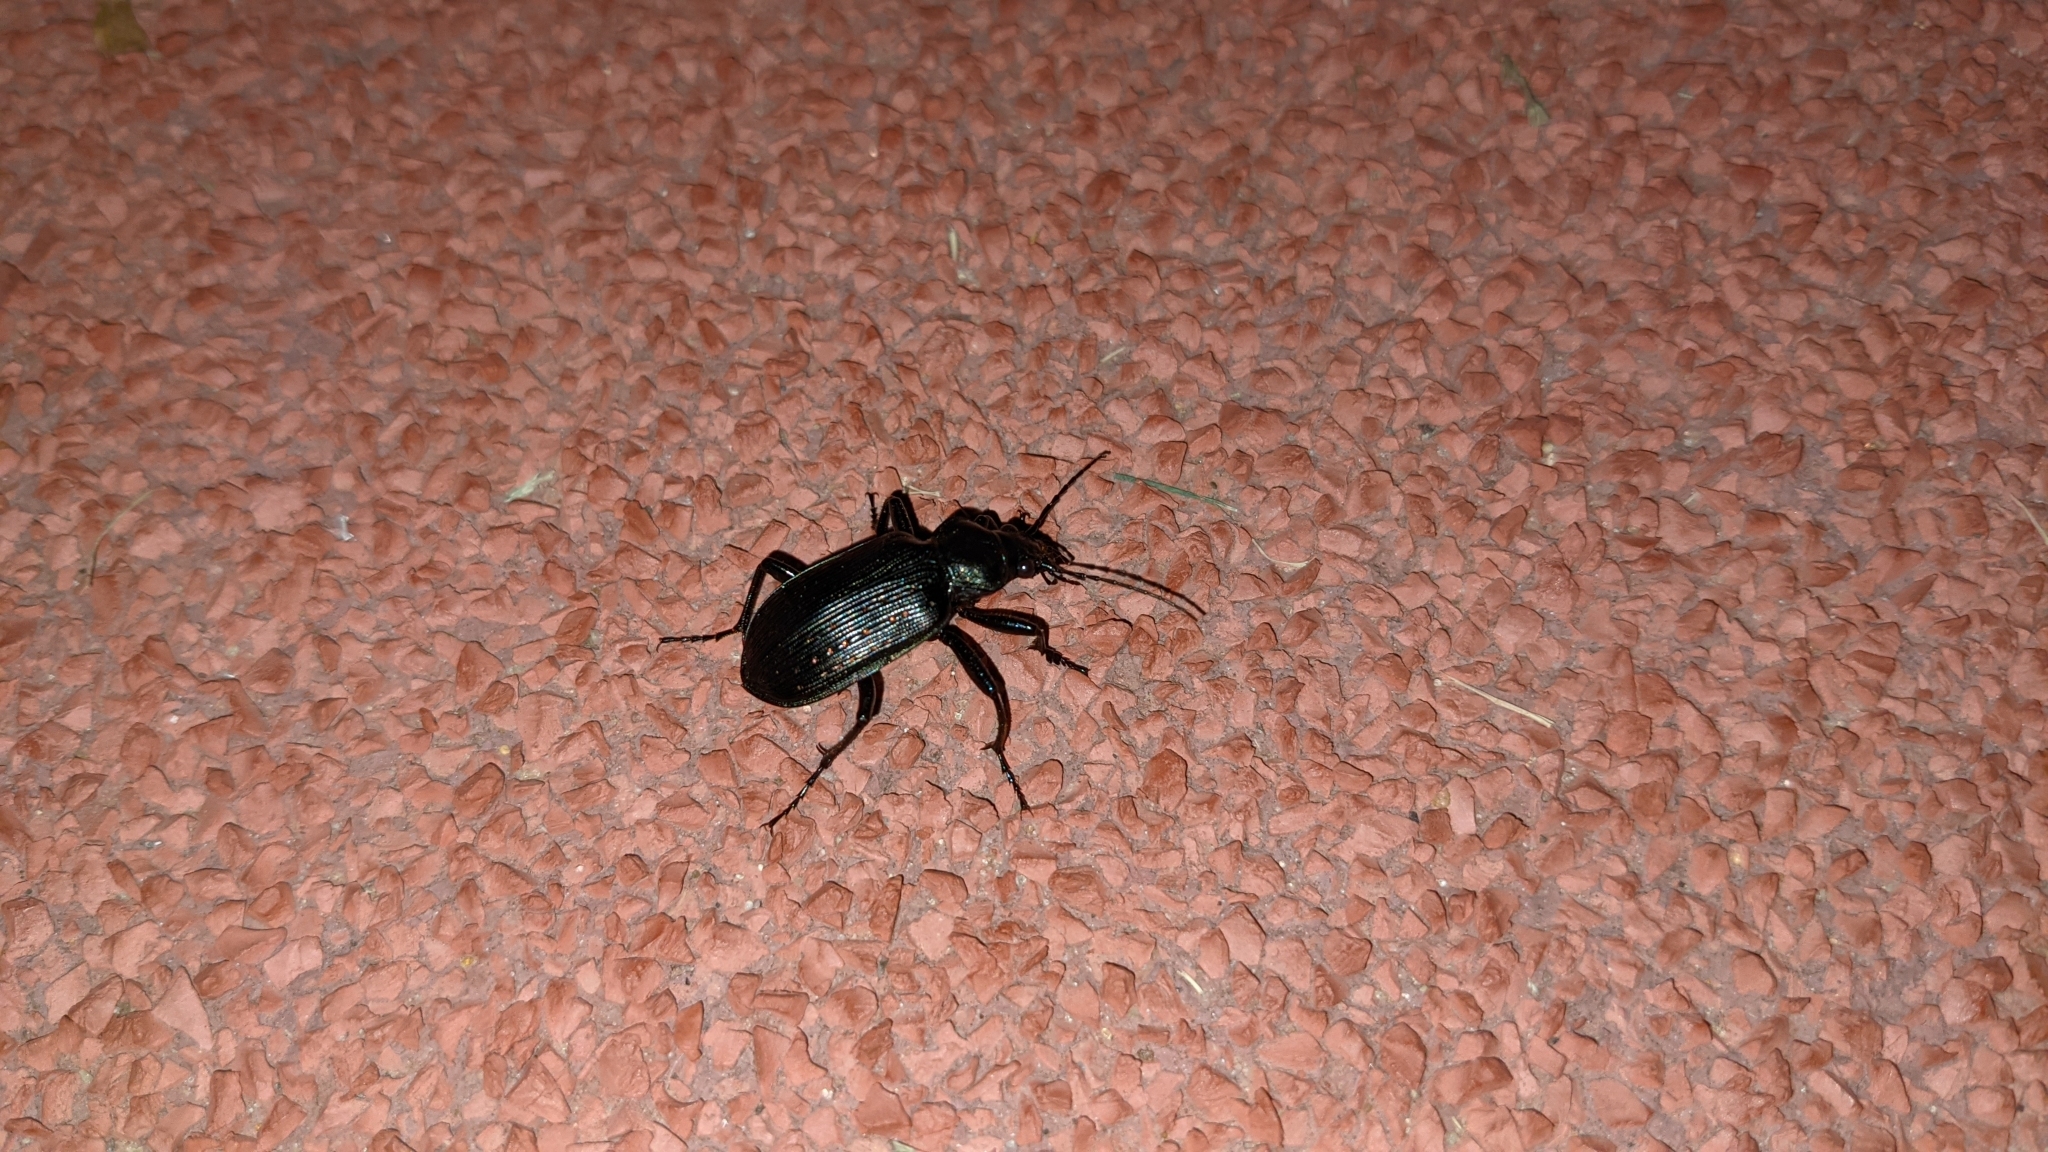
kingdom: Animalia
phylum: Arthropoda
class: Insecta
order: Coleoptera
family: Carabidae
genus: Calosoma
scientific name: Calosoma sayi
